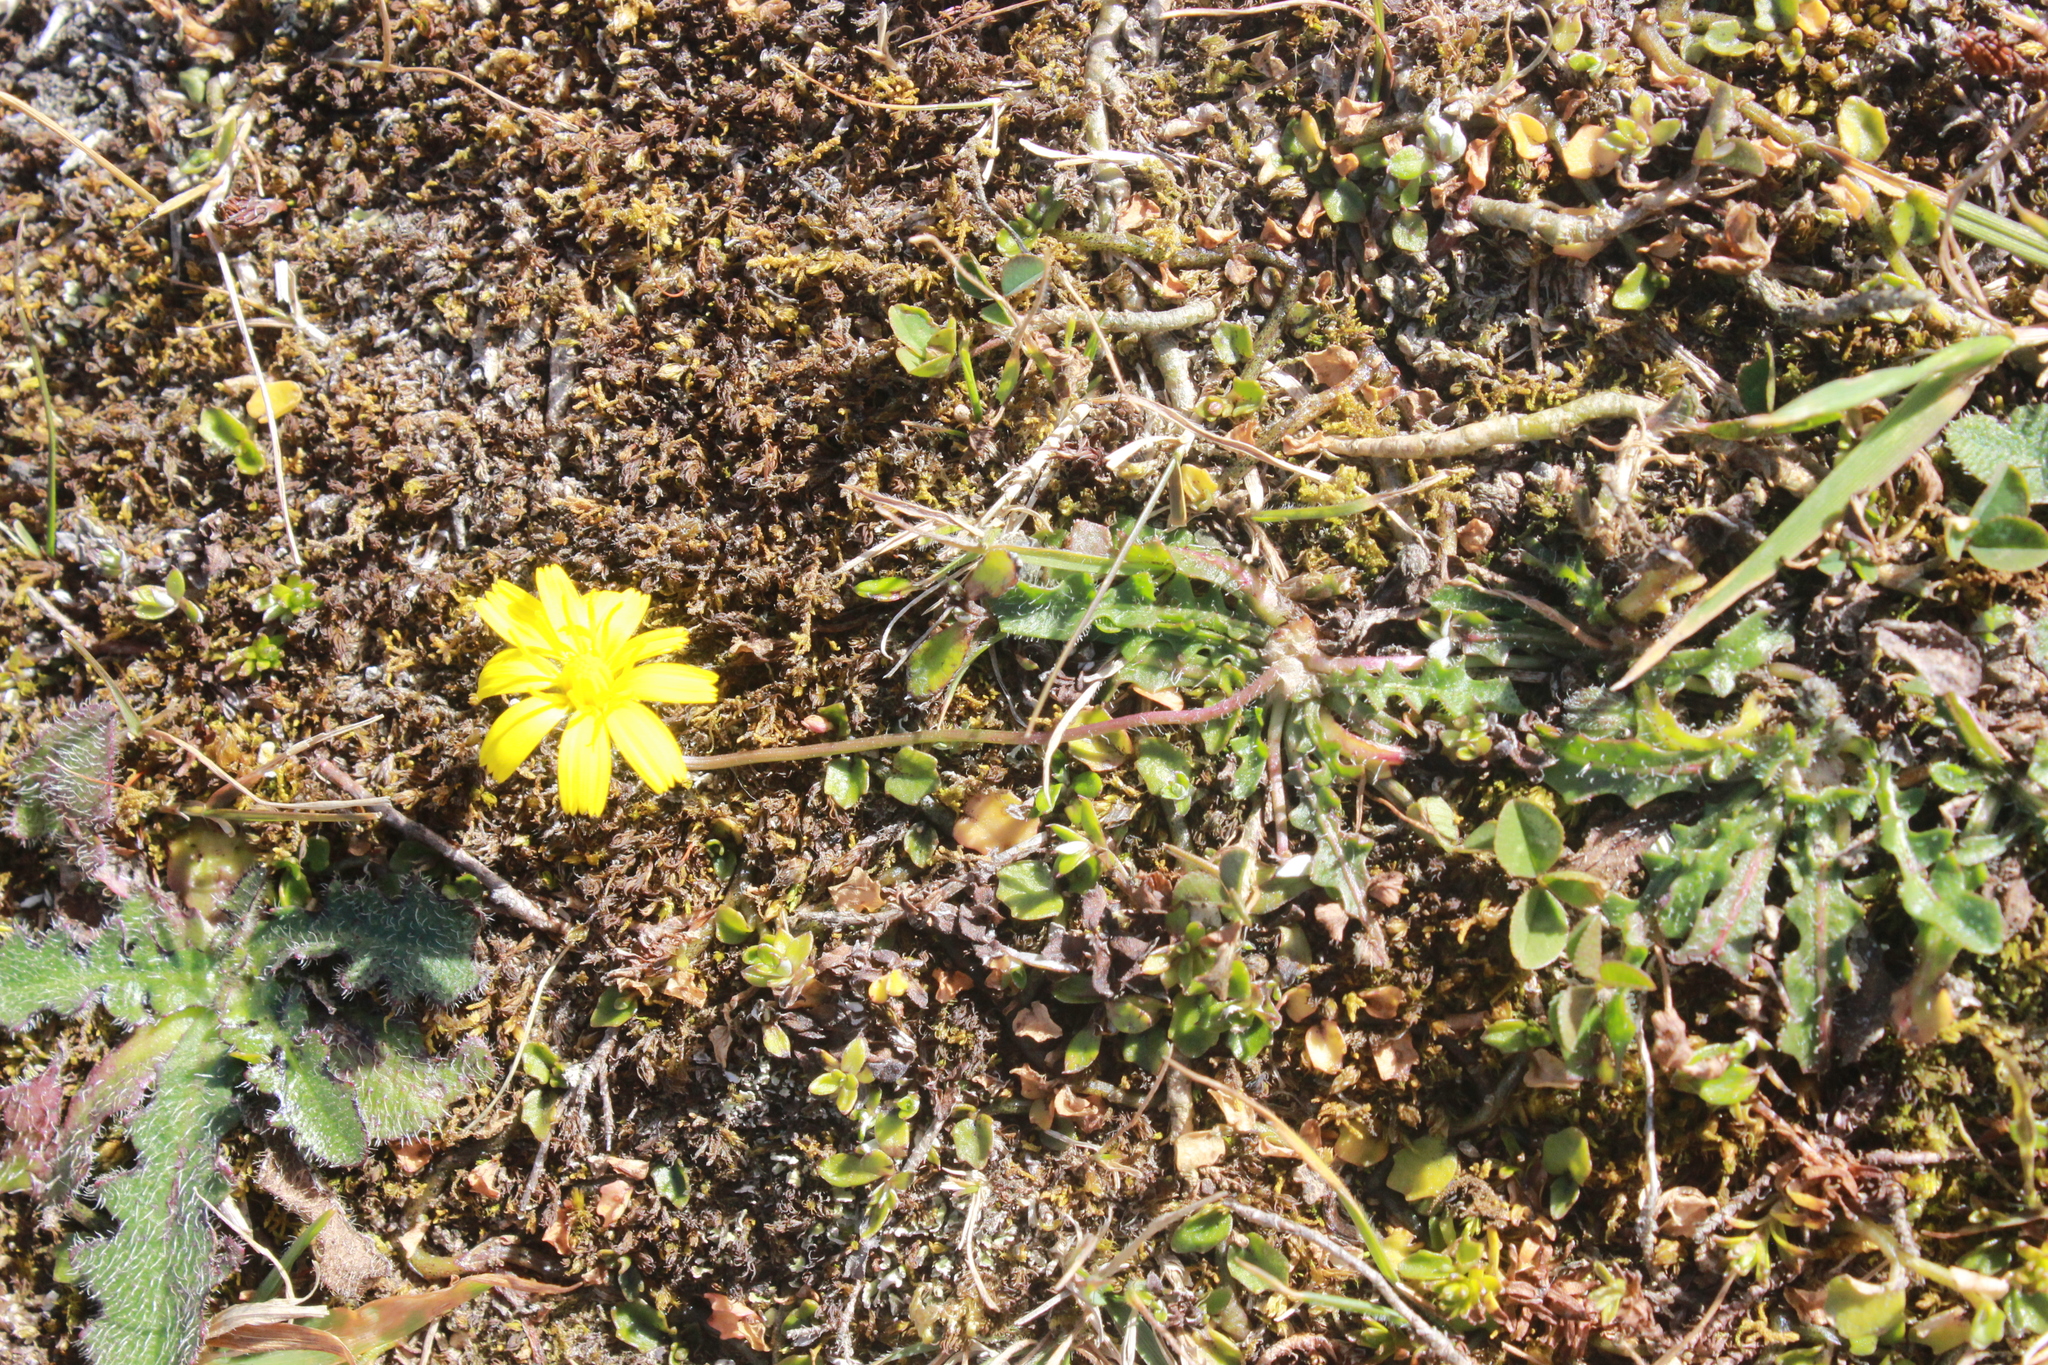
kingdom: Plantae
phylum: Tracheophyta
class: Magnoliopsida
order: Asterales
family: Asteraceae
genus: Hypochaeris
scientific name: Hypochaeris radicata
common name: Flatweed
